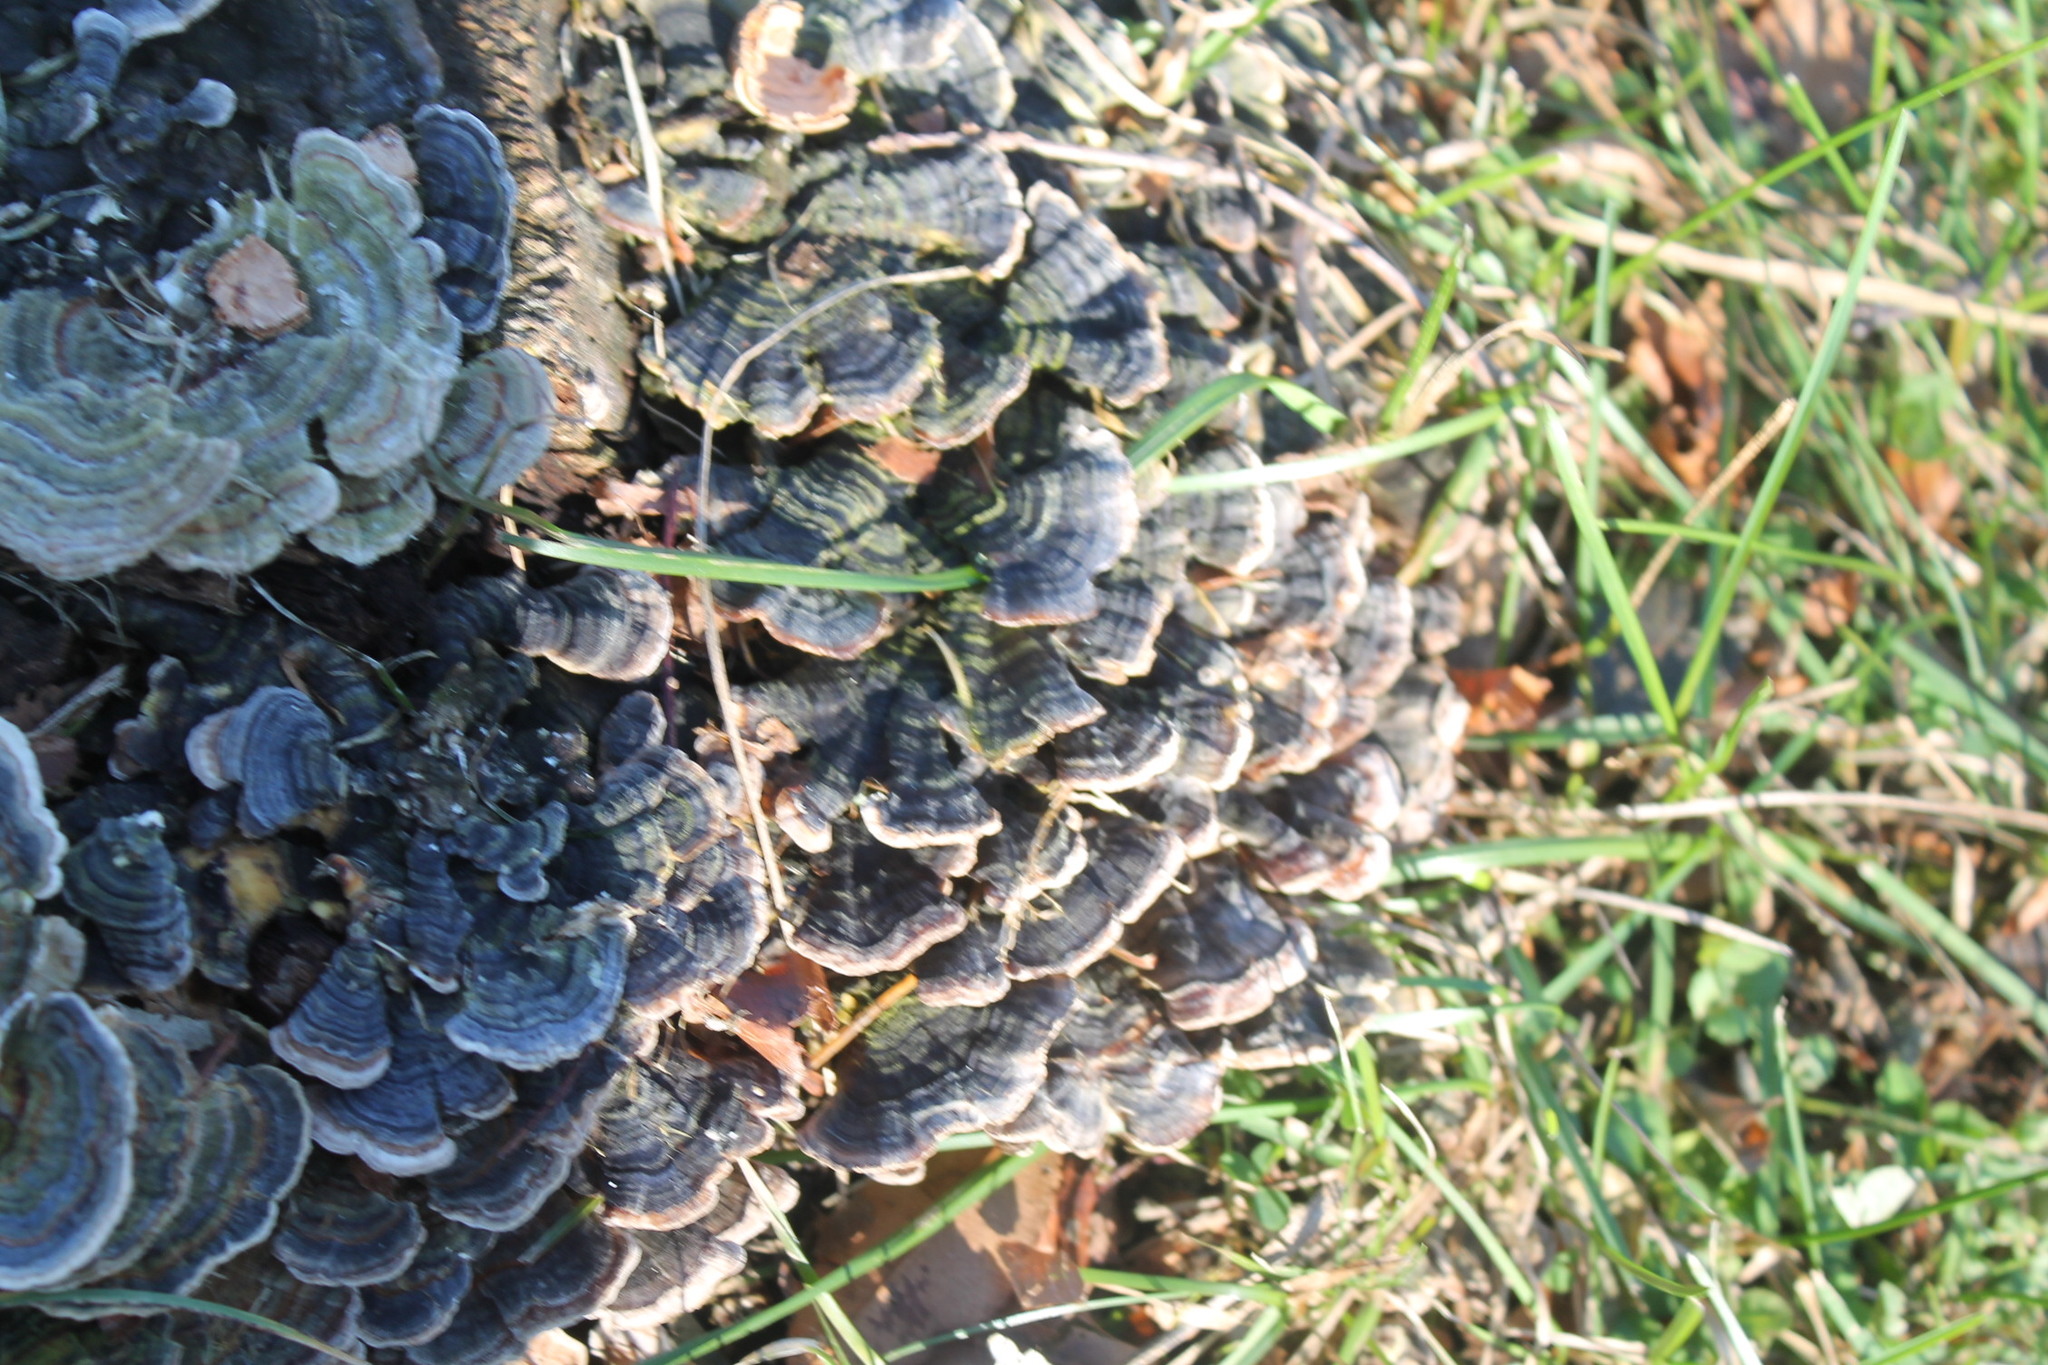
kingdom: Fungi
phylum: Basidiomycota
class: Agaricomycetes
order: Polyporales
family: Polyporaceae
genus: Trametes
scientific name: Trametes versicolor
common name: Turkeytail
